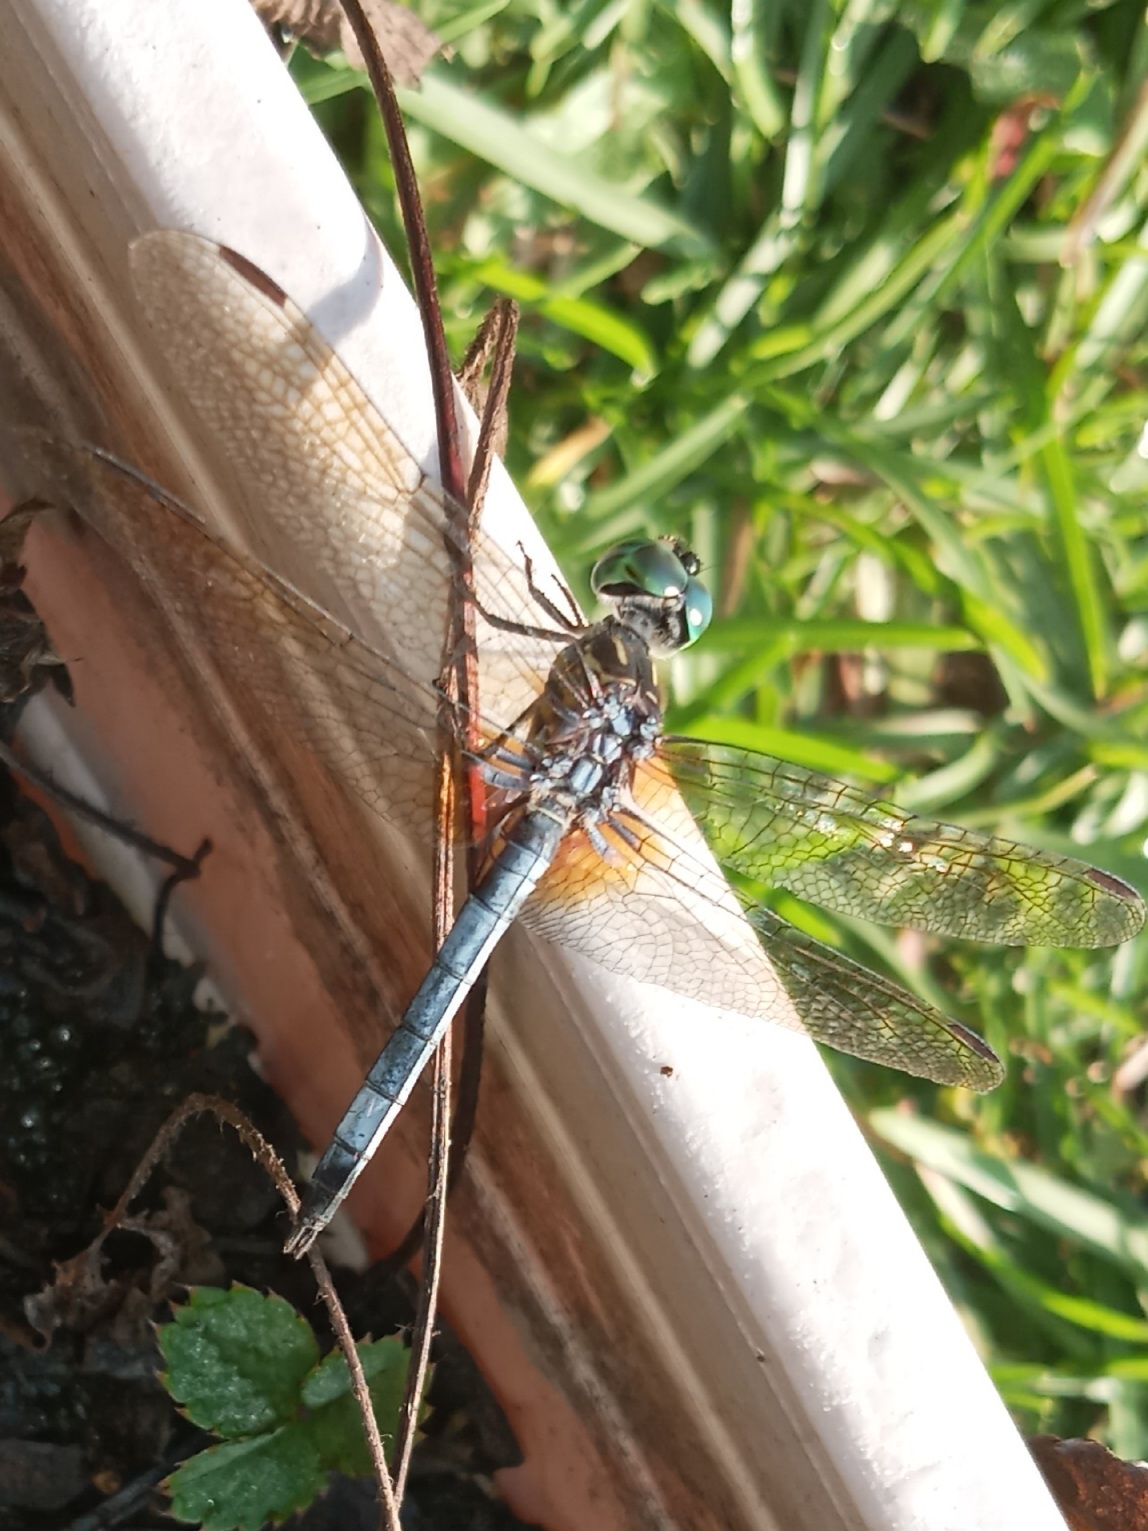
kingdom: Animalia
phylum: Arthropoda
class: Insecta
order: Odonata
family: Libellulidae
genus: Pachydiplax
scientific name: Pachydiplax longipennis
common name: Blue dasher
